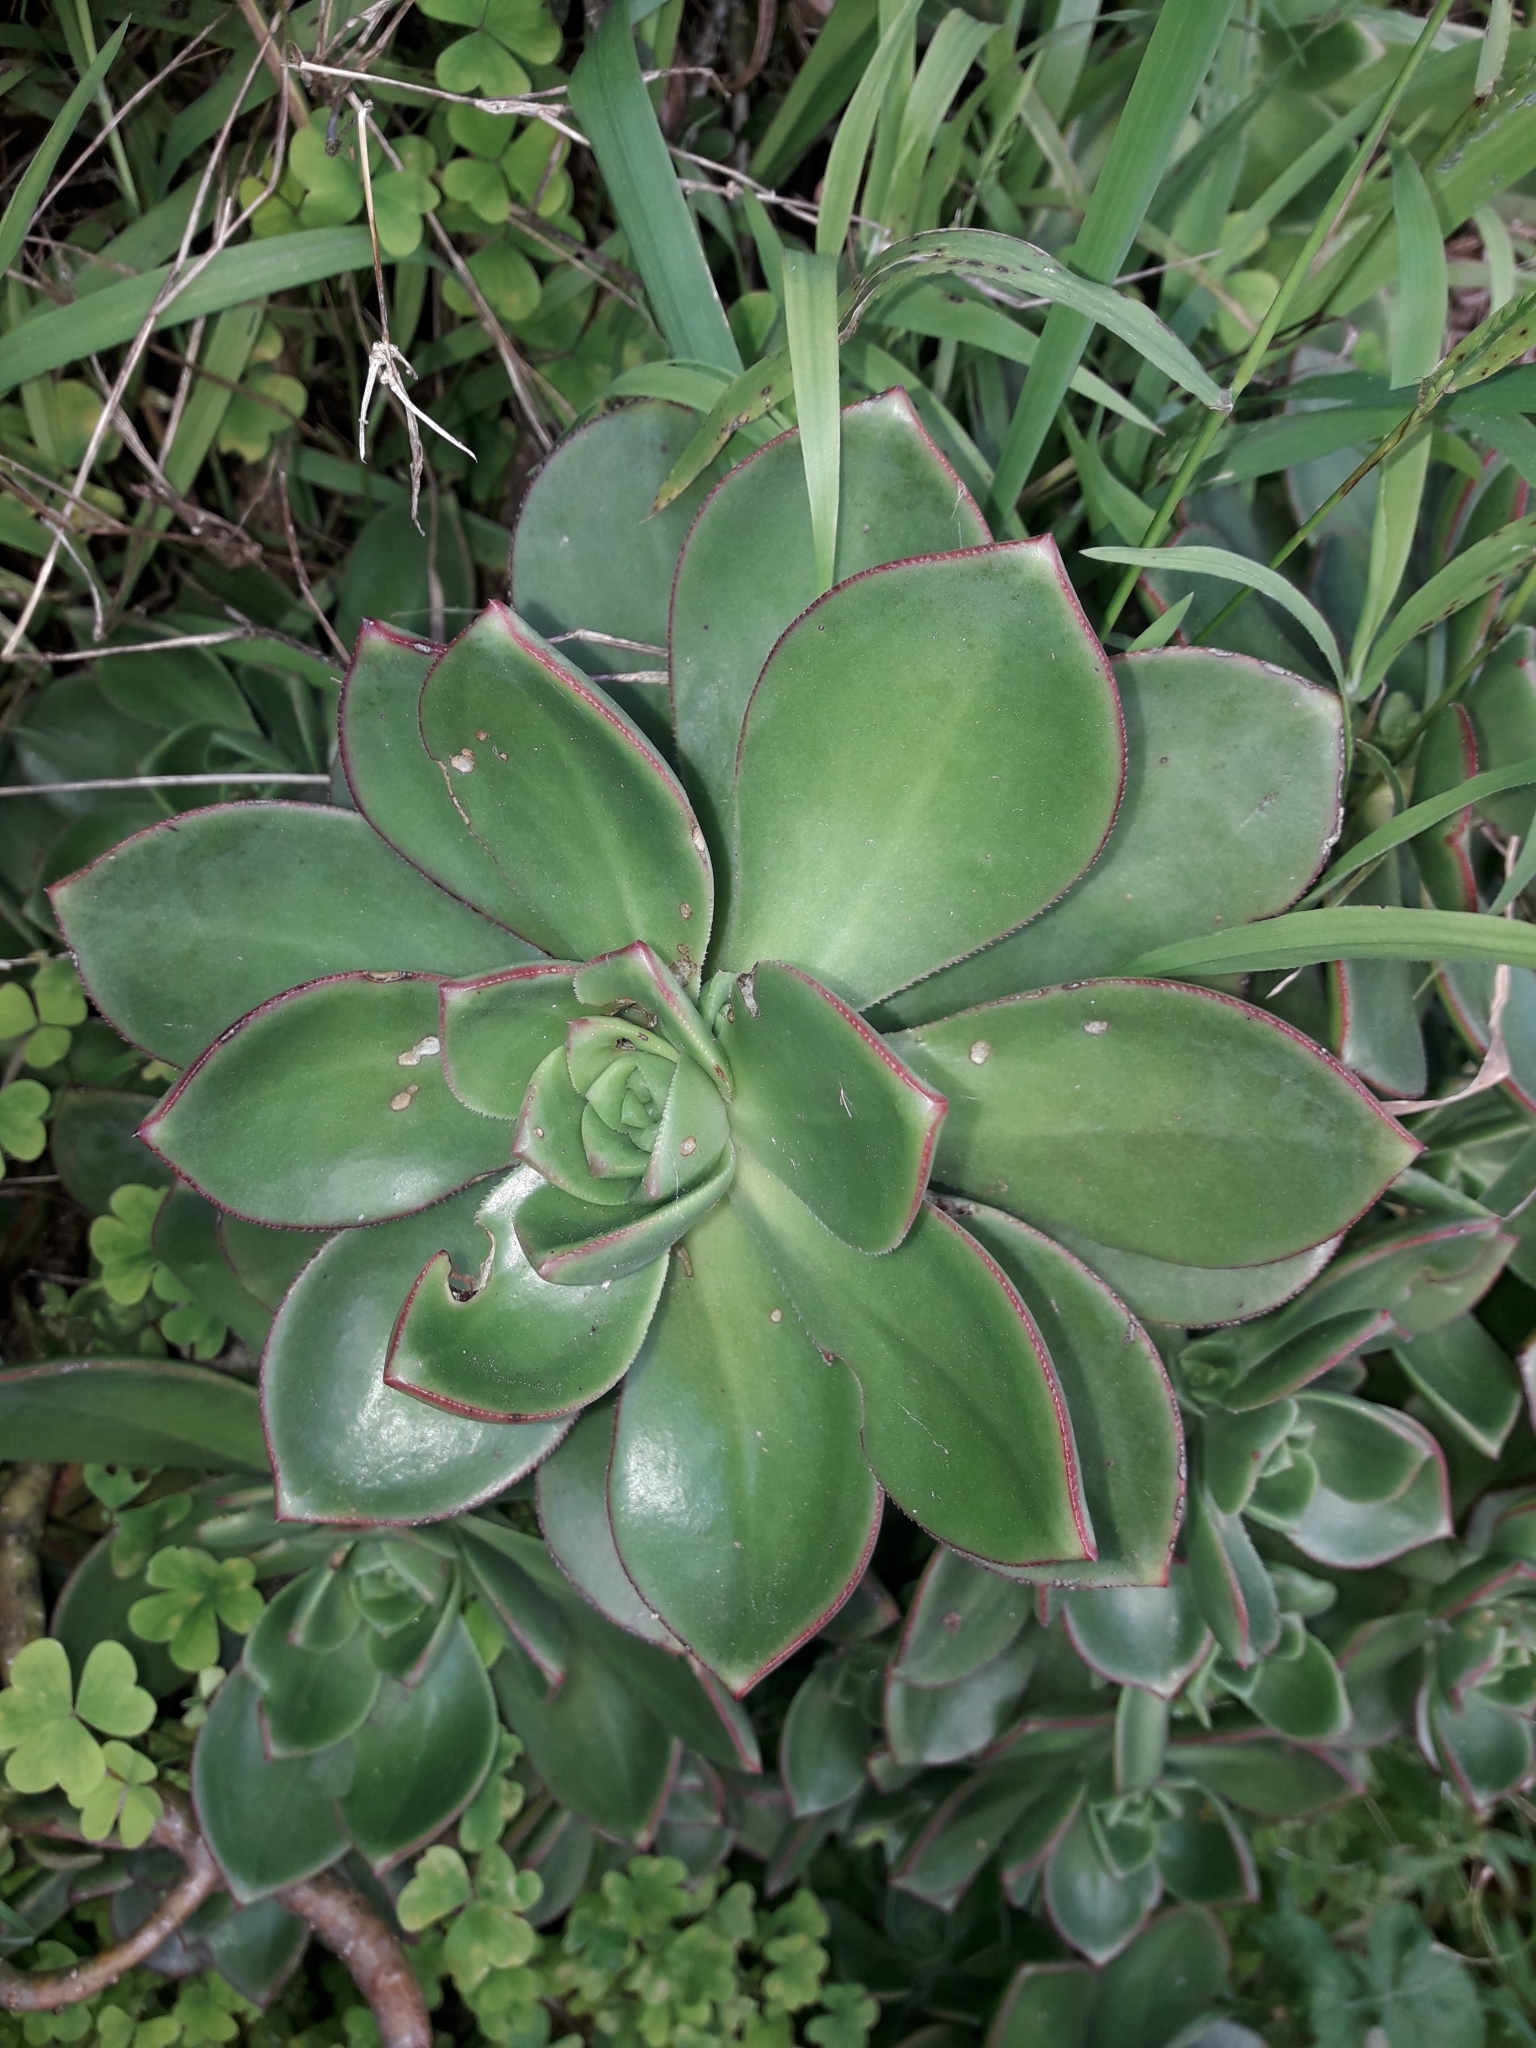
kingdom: Plantae
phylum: Tracheophyta
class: Magnoliopsida
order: Saxifragales
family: Crassulaceae
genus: Aeonium
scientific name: Aeonium haworthii
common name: Haworth's aeonium
